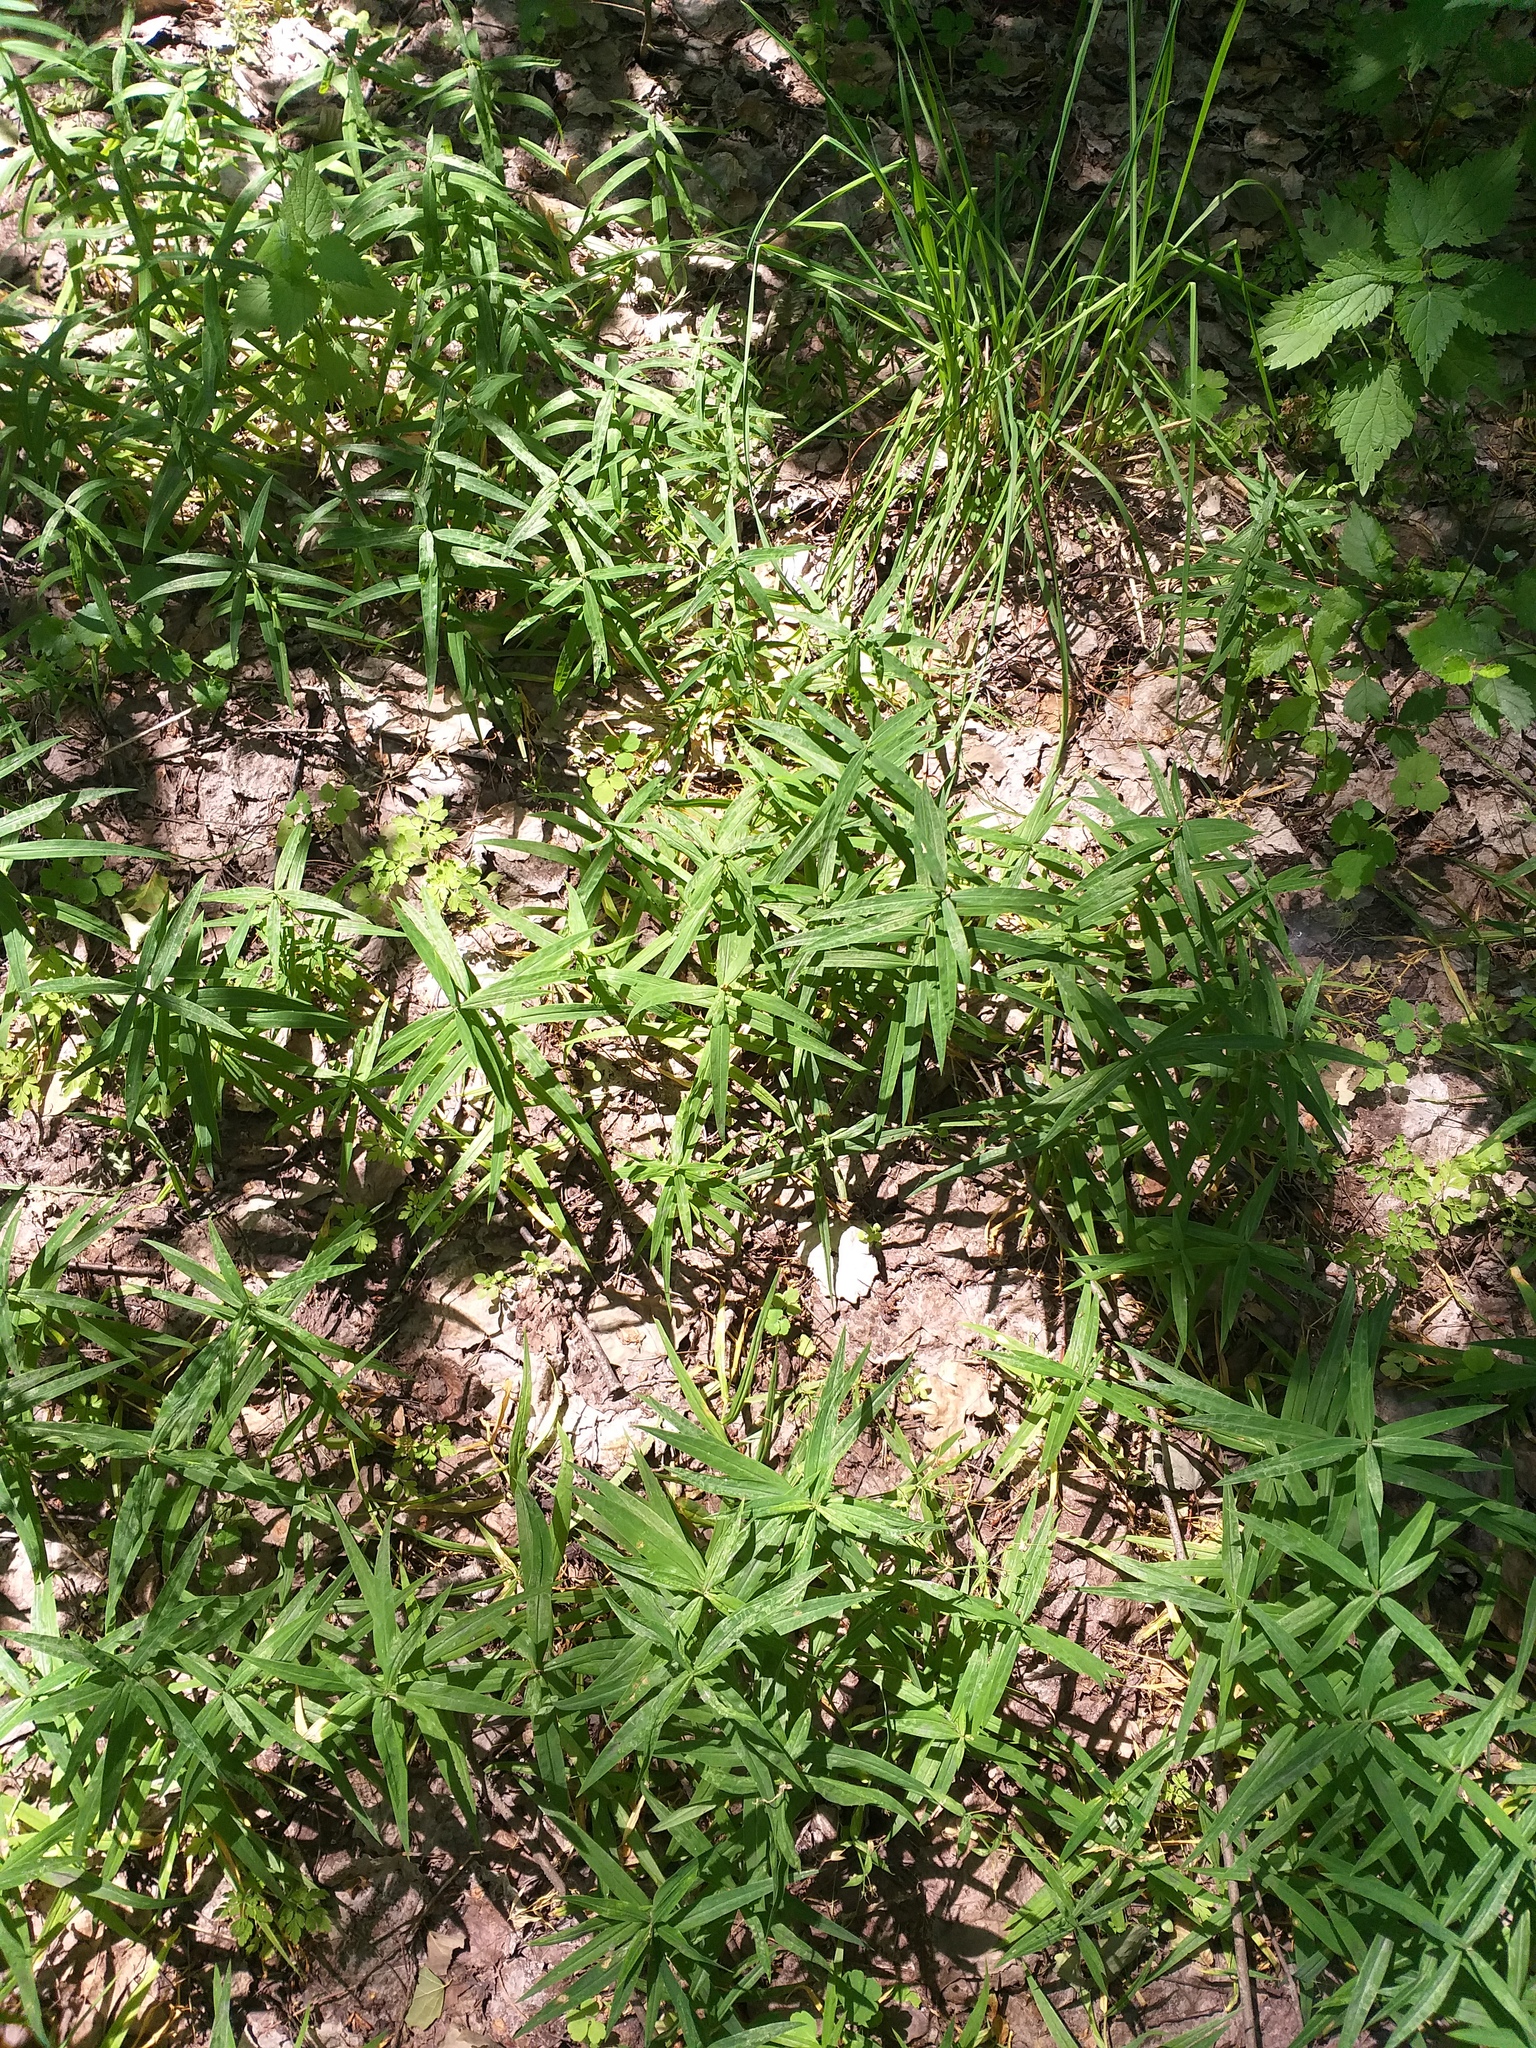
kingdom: Plantae
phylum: Tracheophyta
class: Magnoliopsida
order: Caryophyllales
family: Caryophyllaceae
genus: Rabelera
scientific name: Rabelera holostea
